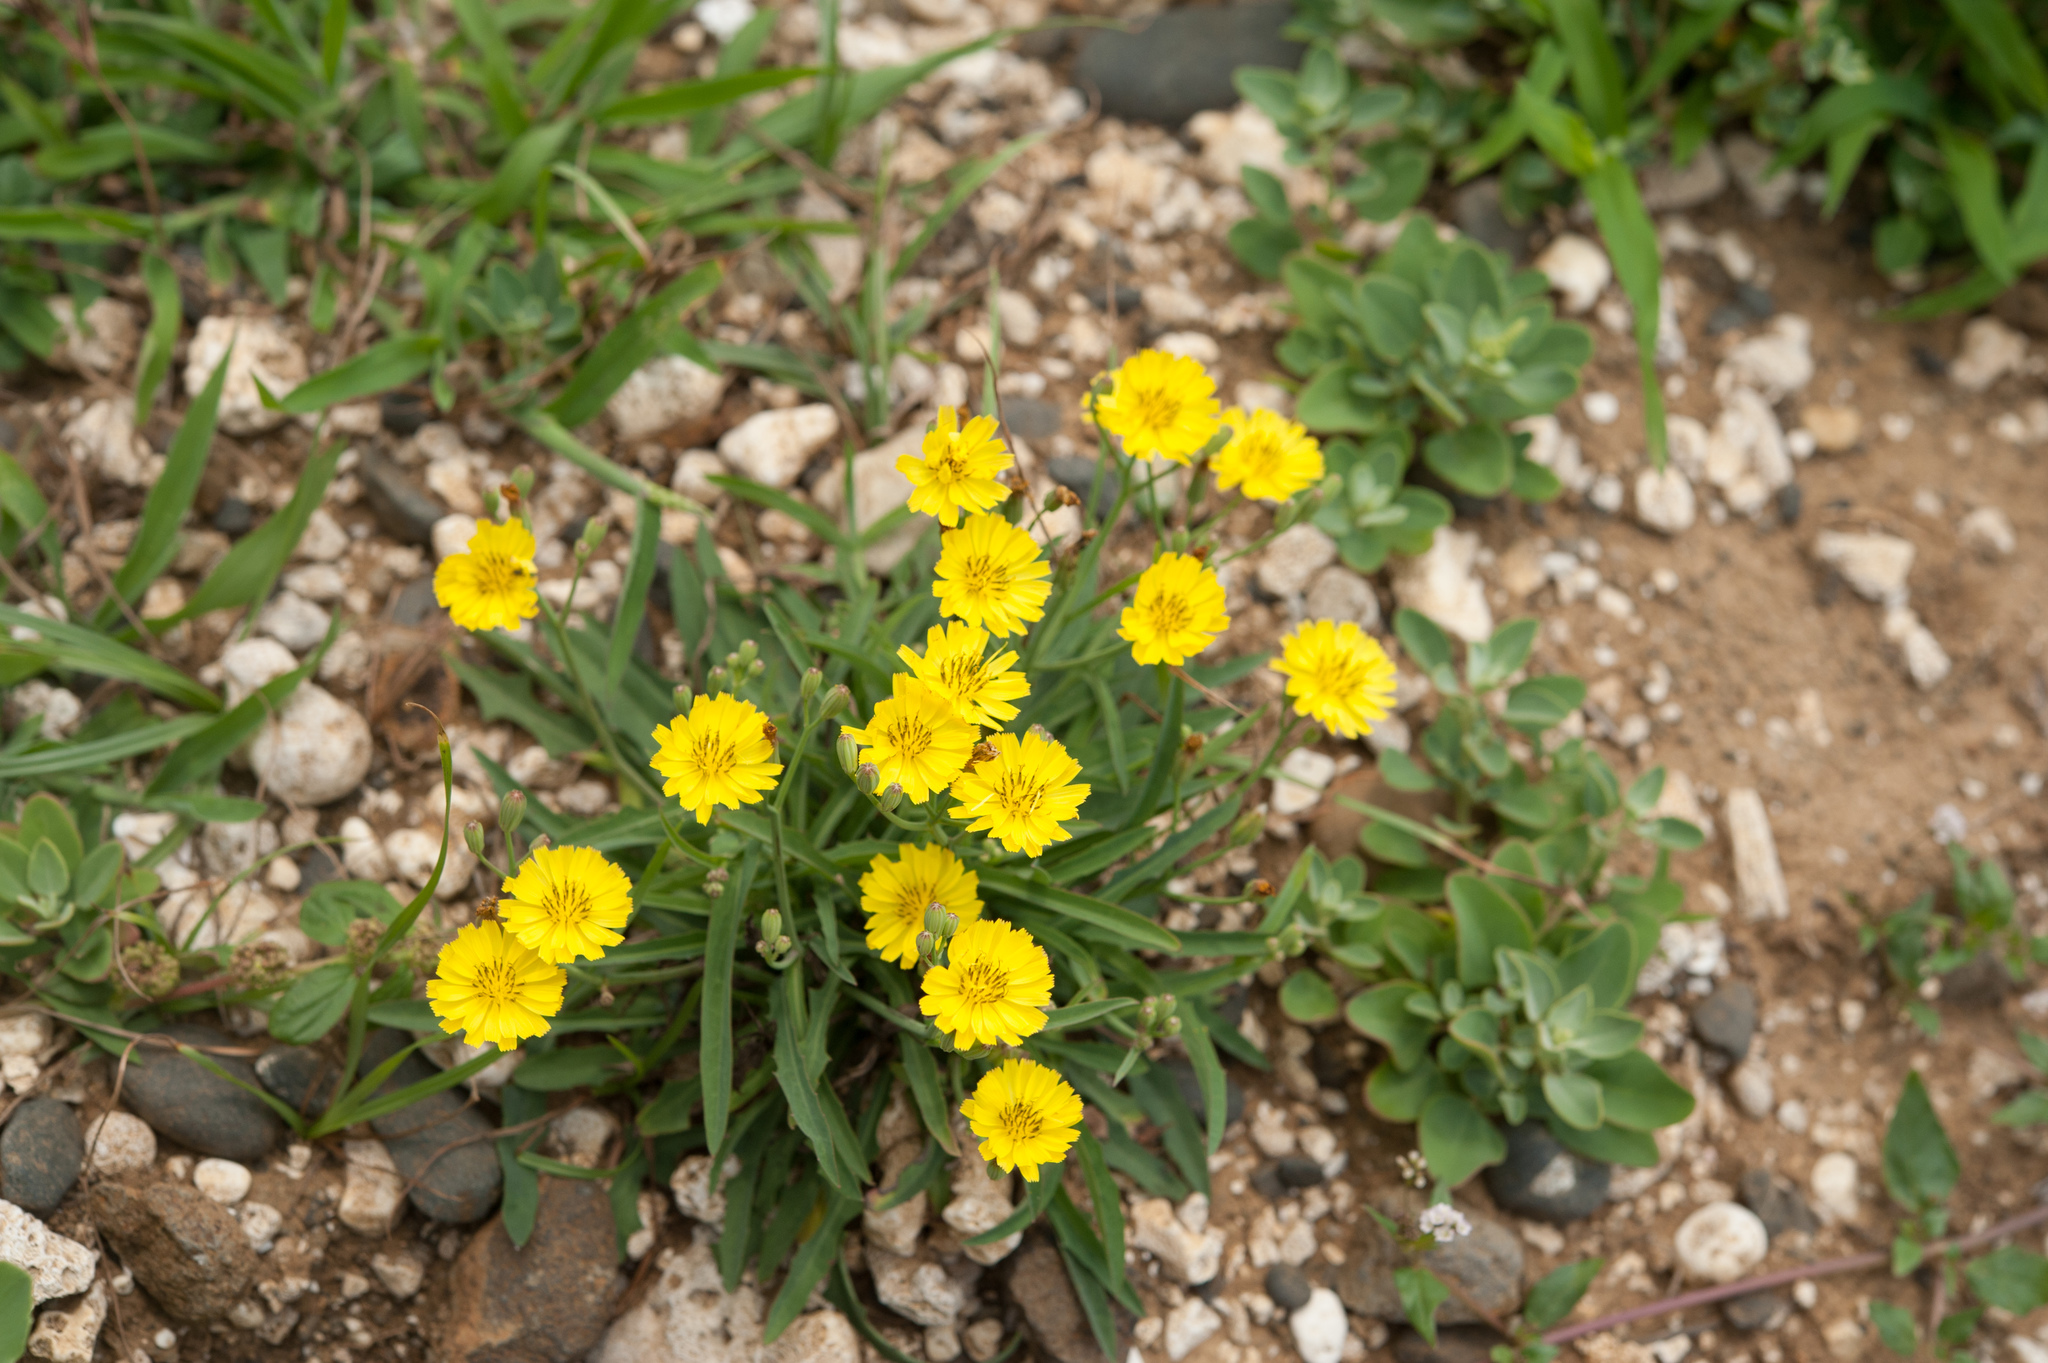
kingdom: Plantae
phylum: Tracheophyta
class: Magnoliopsida
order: Asterales
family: Asteraceae
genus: Ixeris
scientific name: Ixeris chinensis
